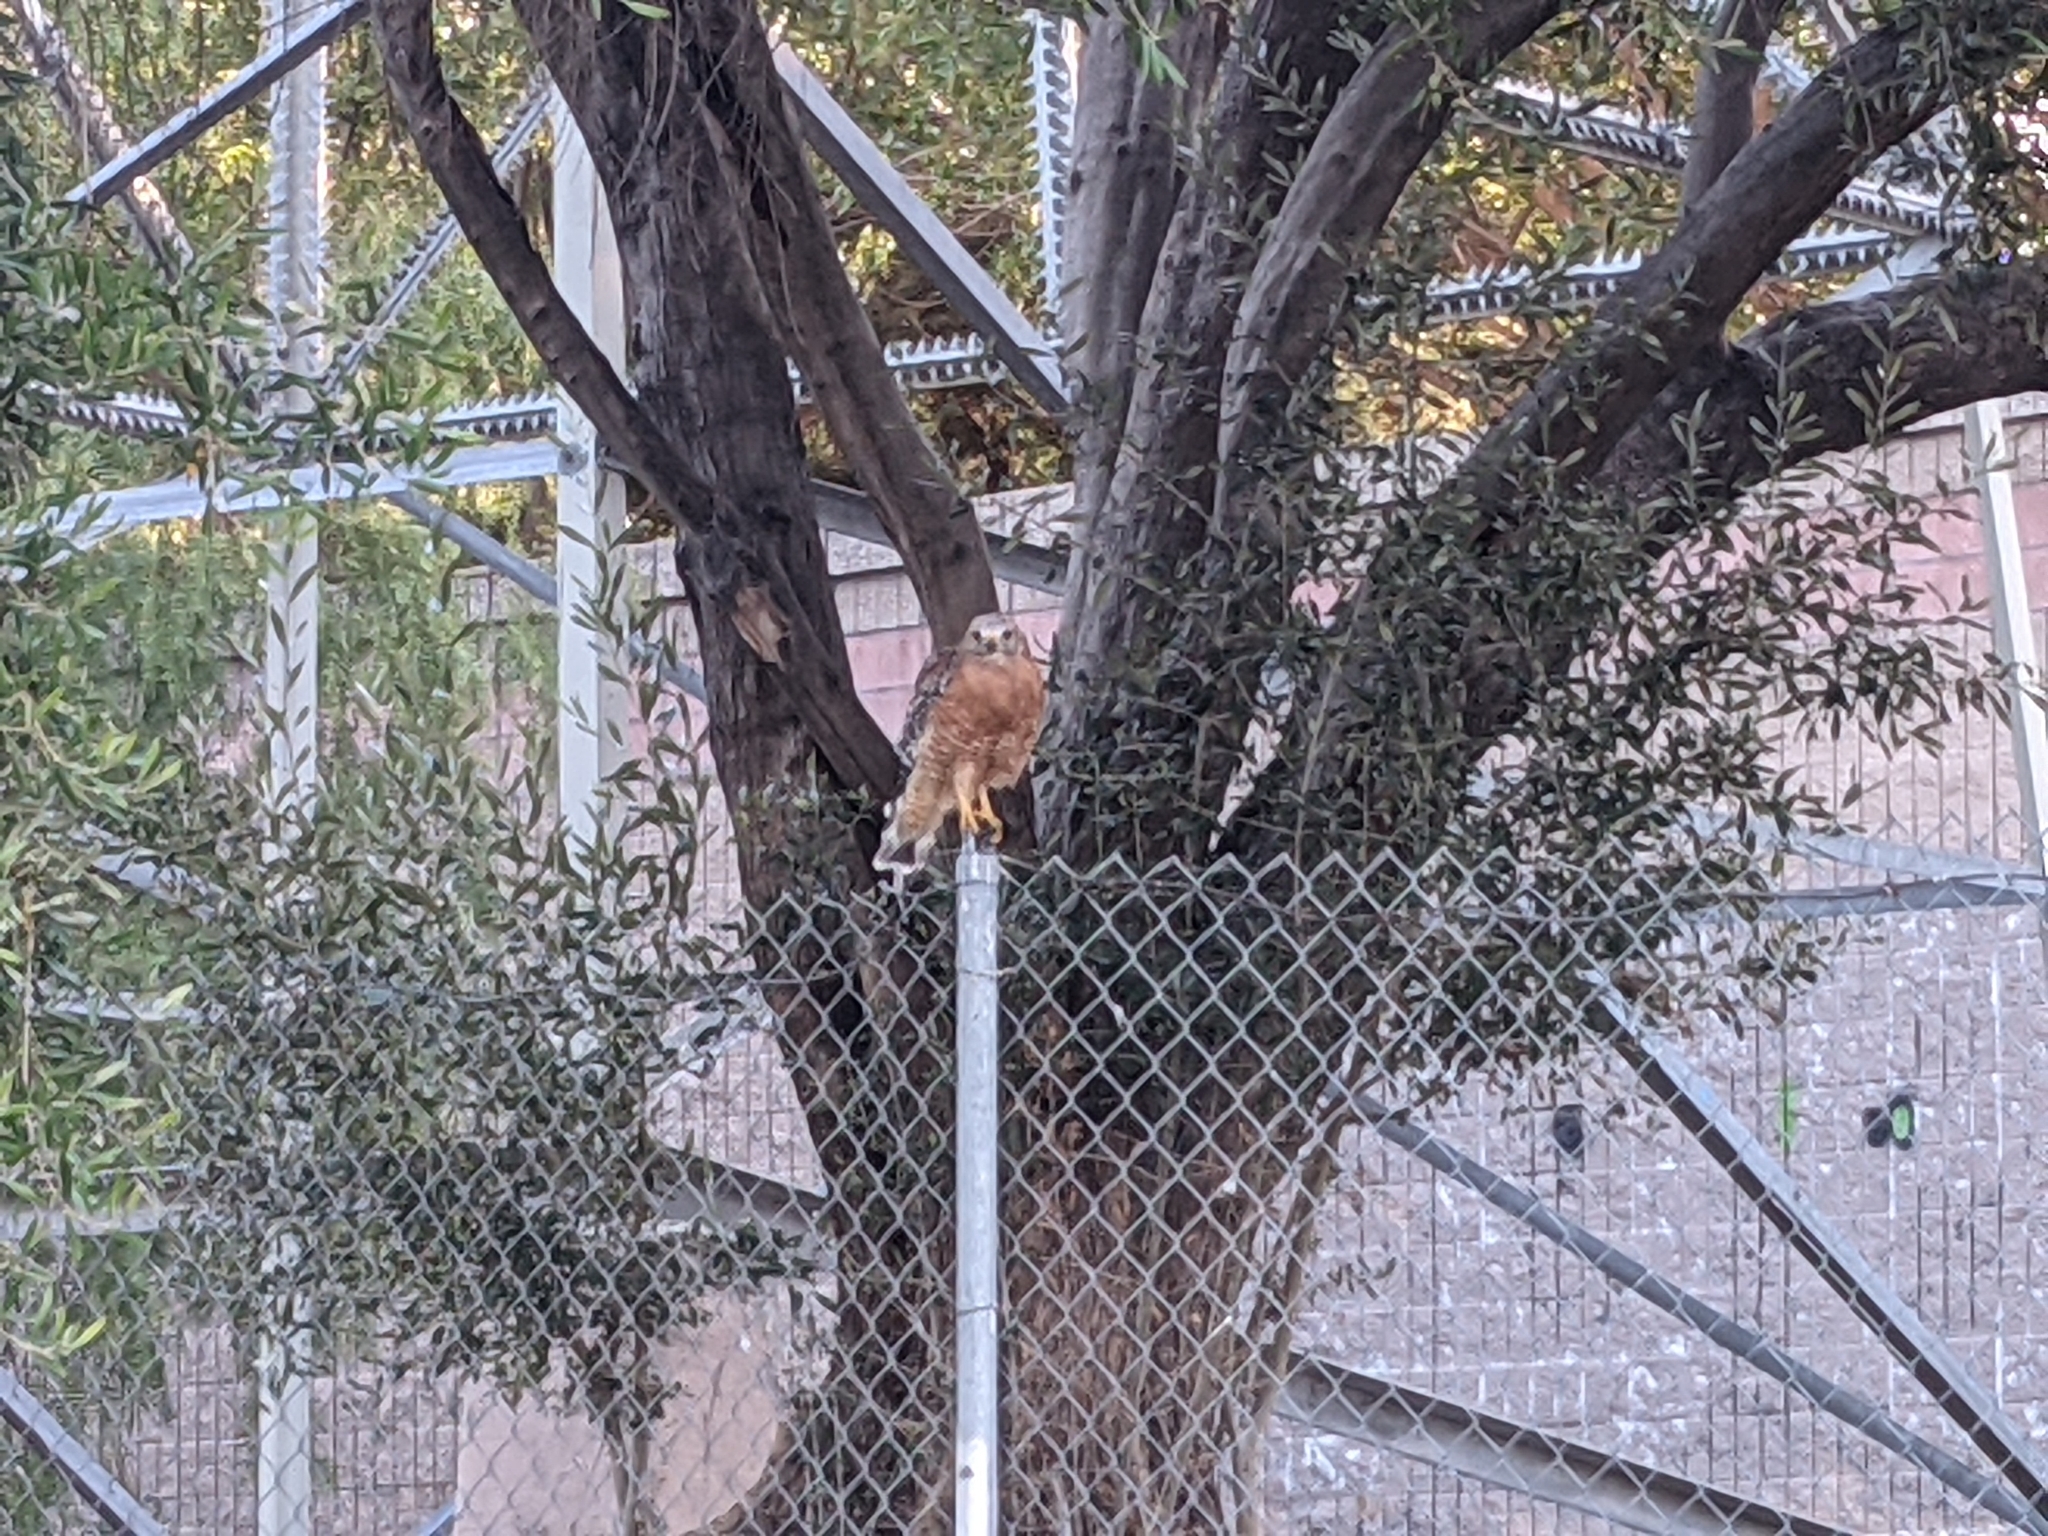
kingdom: Animalia
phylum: Chordata
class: Aves
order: Accipitriformes
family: Accipitridae
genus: Buteo
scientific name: Buteo lineatus
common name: Red-shouldered hawk
